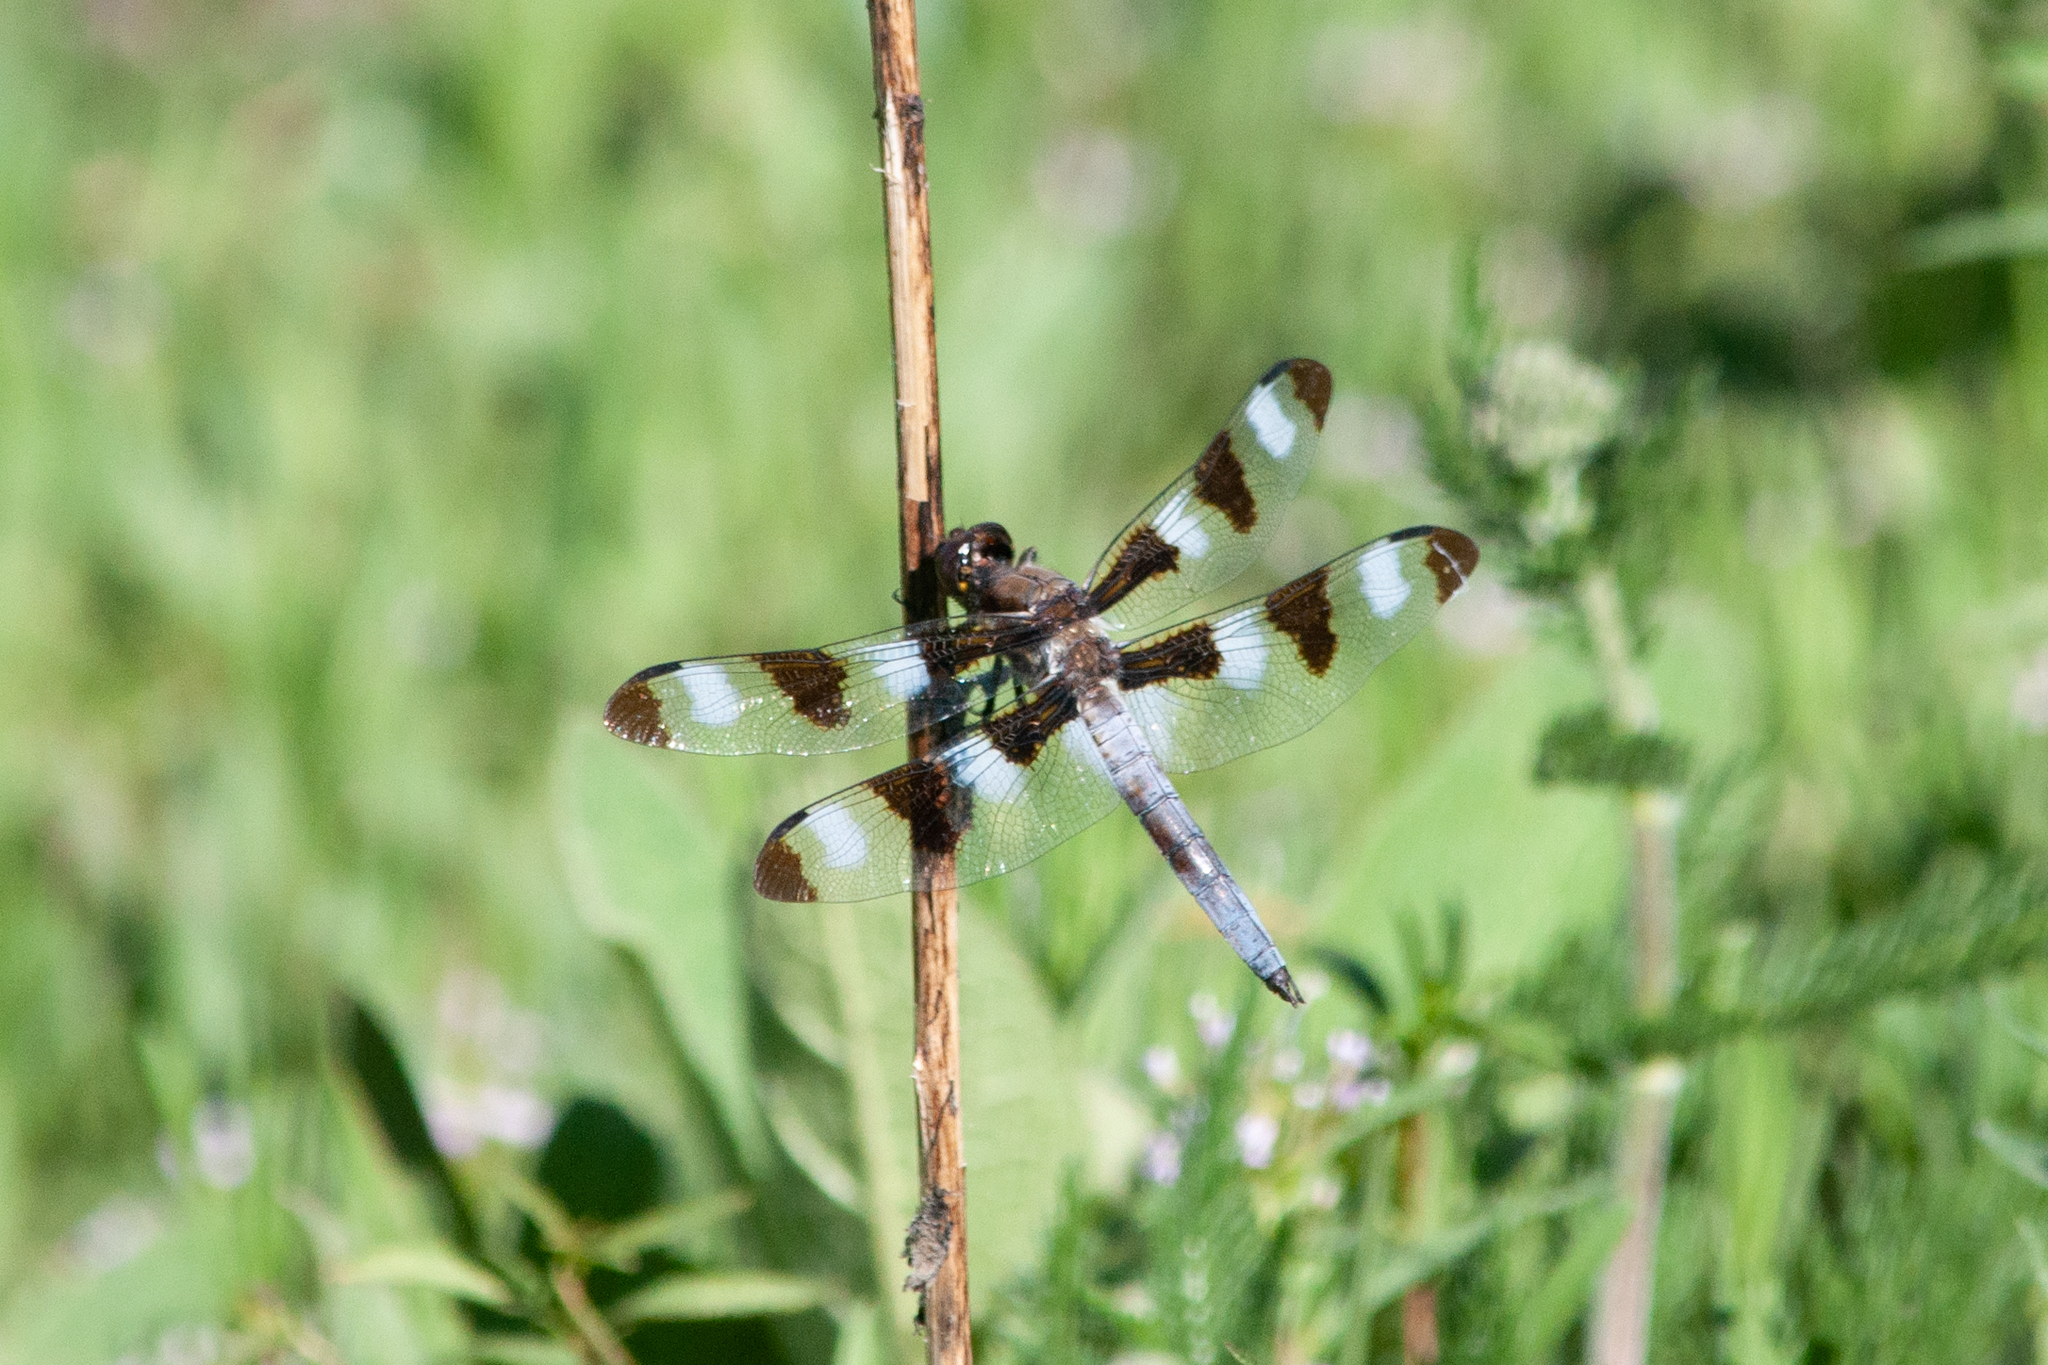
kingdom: Animalia
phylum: Arthropoda
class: Insecta
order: Odonata
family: Libellulidae
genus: Libellula
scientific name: Libellula pulchella
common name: Twelve-spotted skimmer
